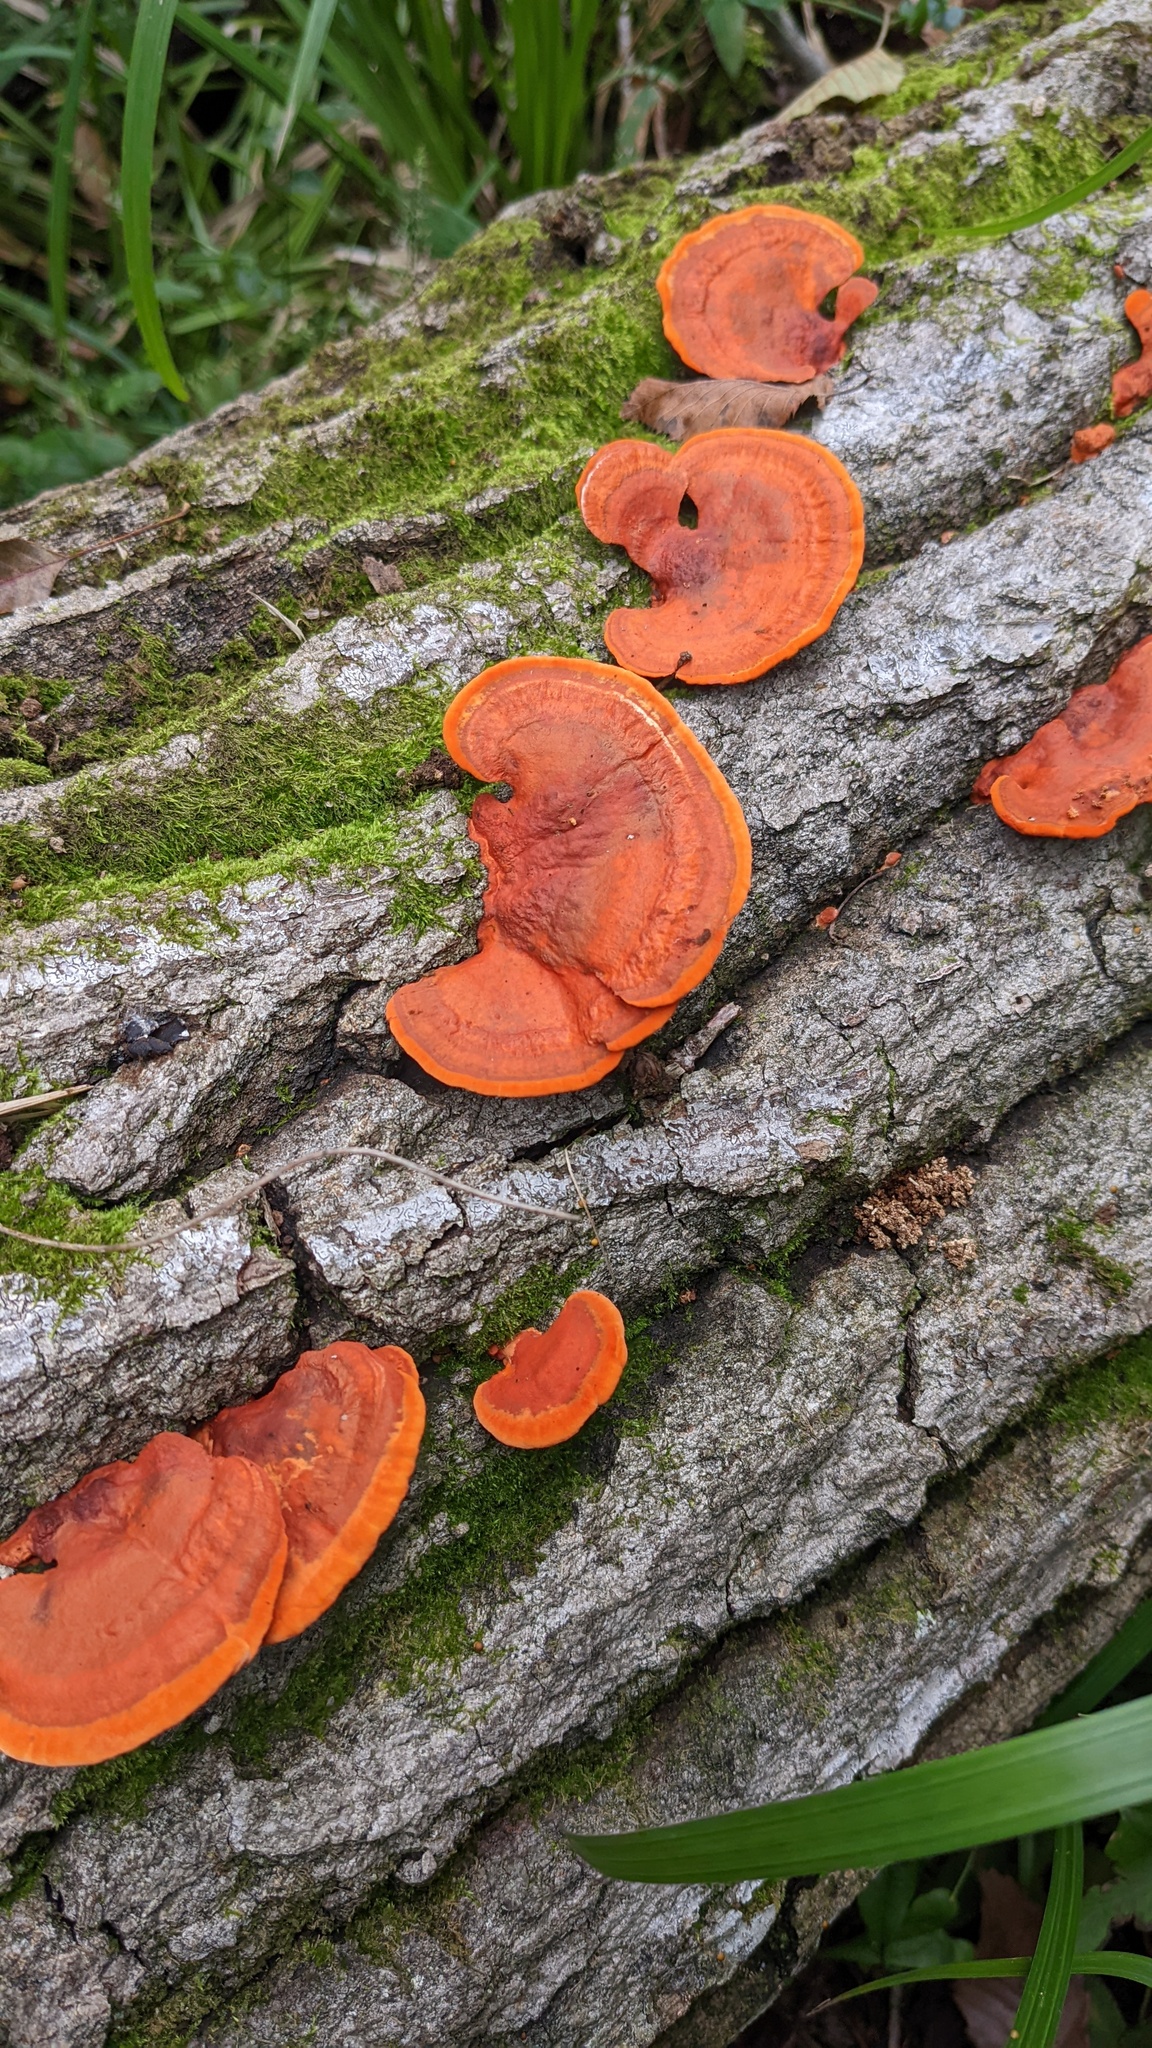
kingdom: Fungi
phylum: Basidiomycota
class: Agaricomycetes
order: Polyporales
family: Polyporaceae
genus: Trametes
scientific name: Trametes coccinea
